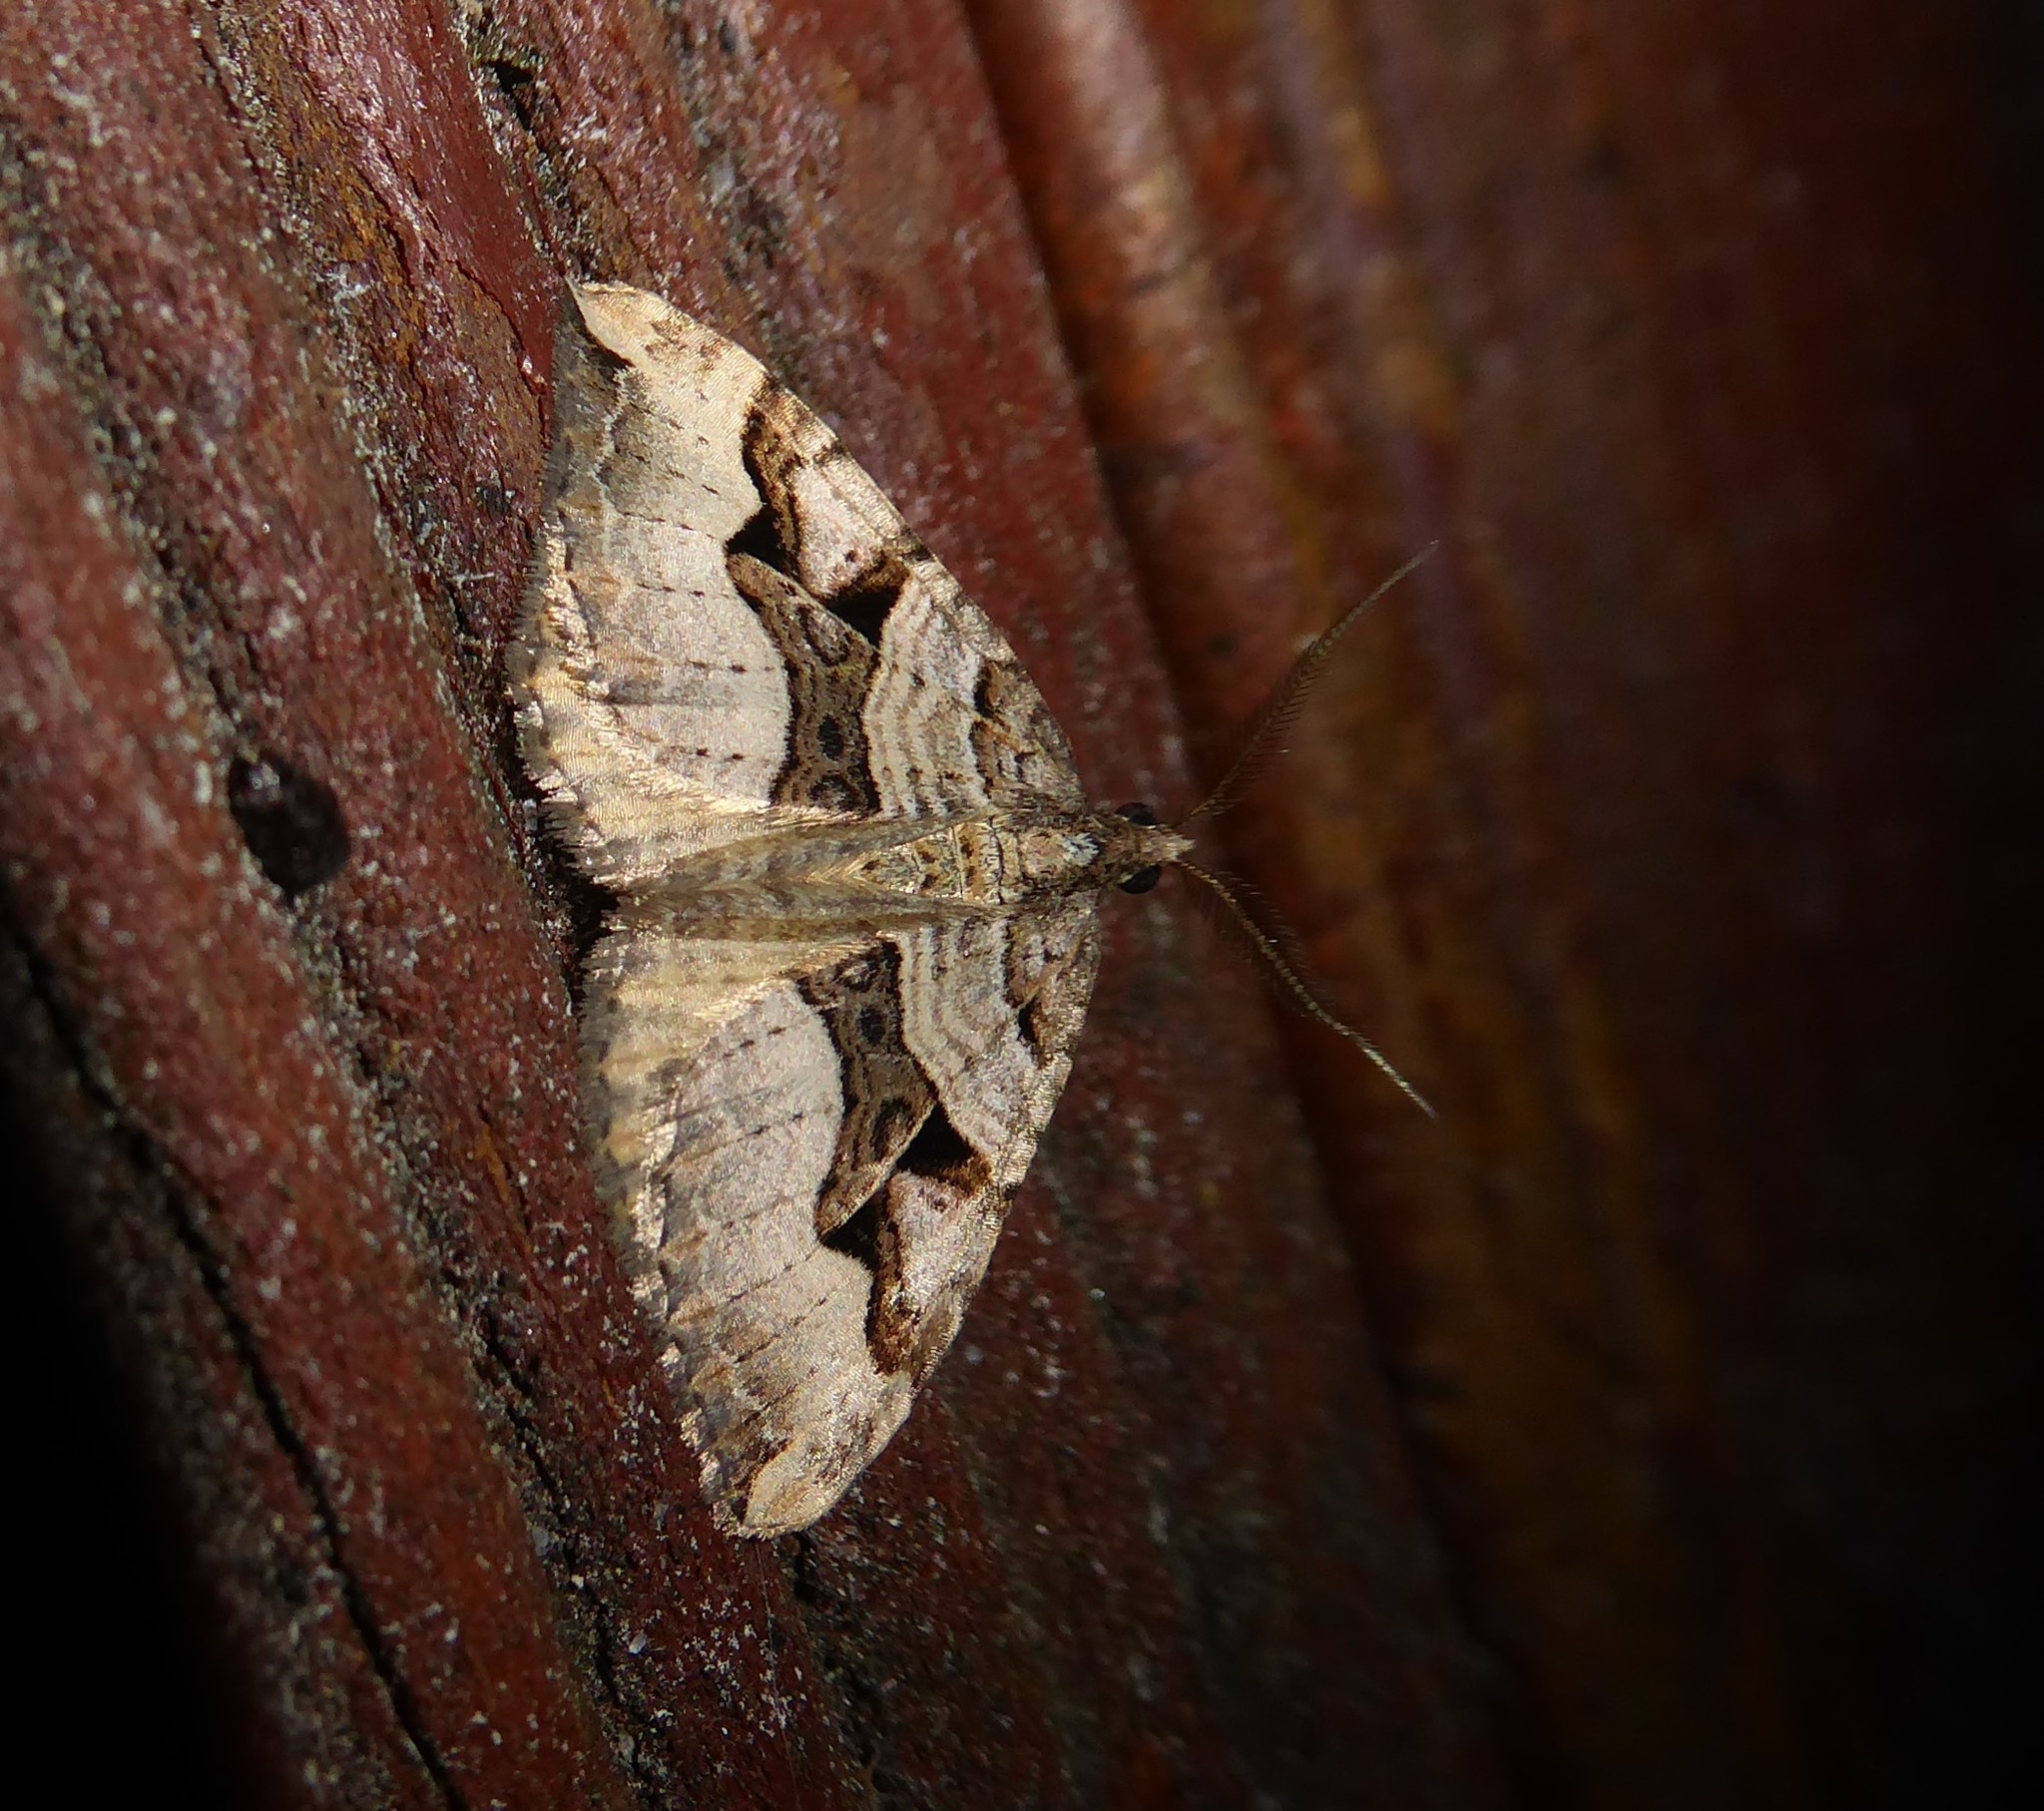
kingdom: Animalia
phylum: Arthropoda
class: Insecta
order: Lepidoptera
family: Geometridae
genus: Xanthorhoe
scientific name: Xanthorhoe semifissata
